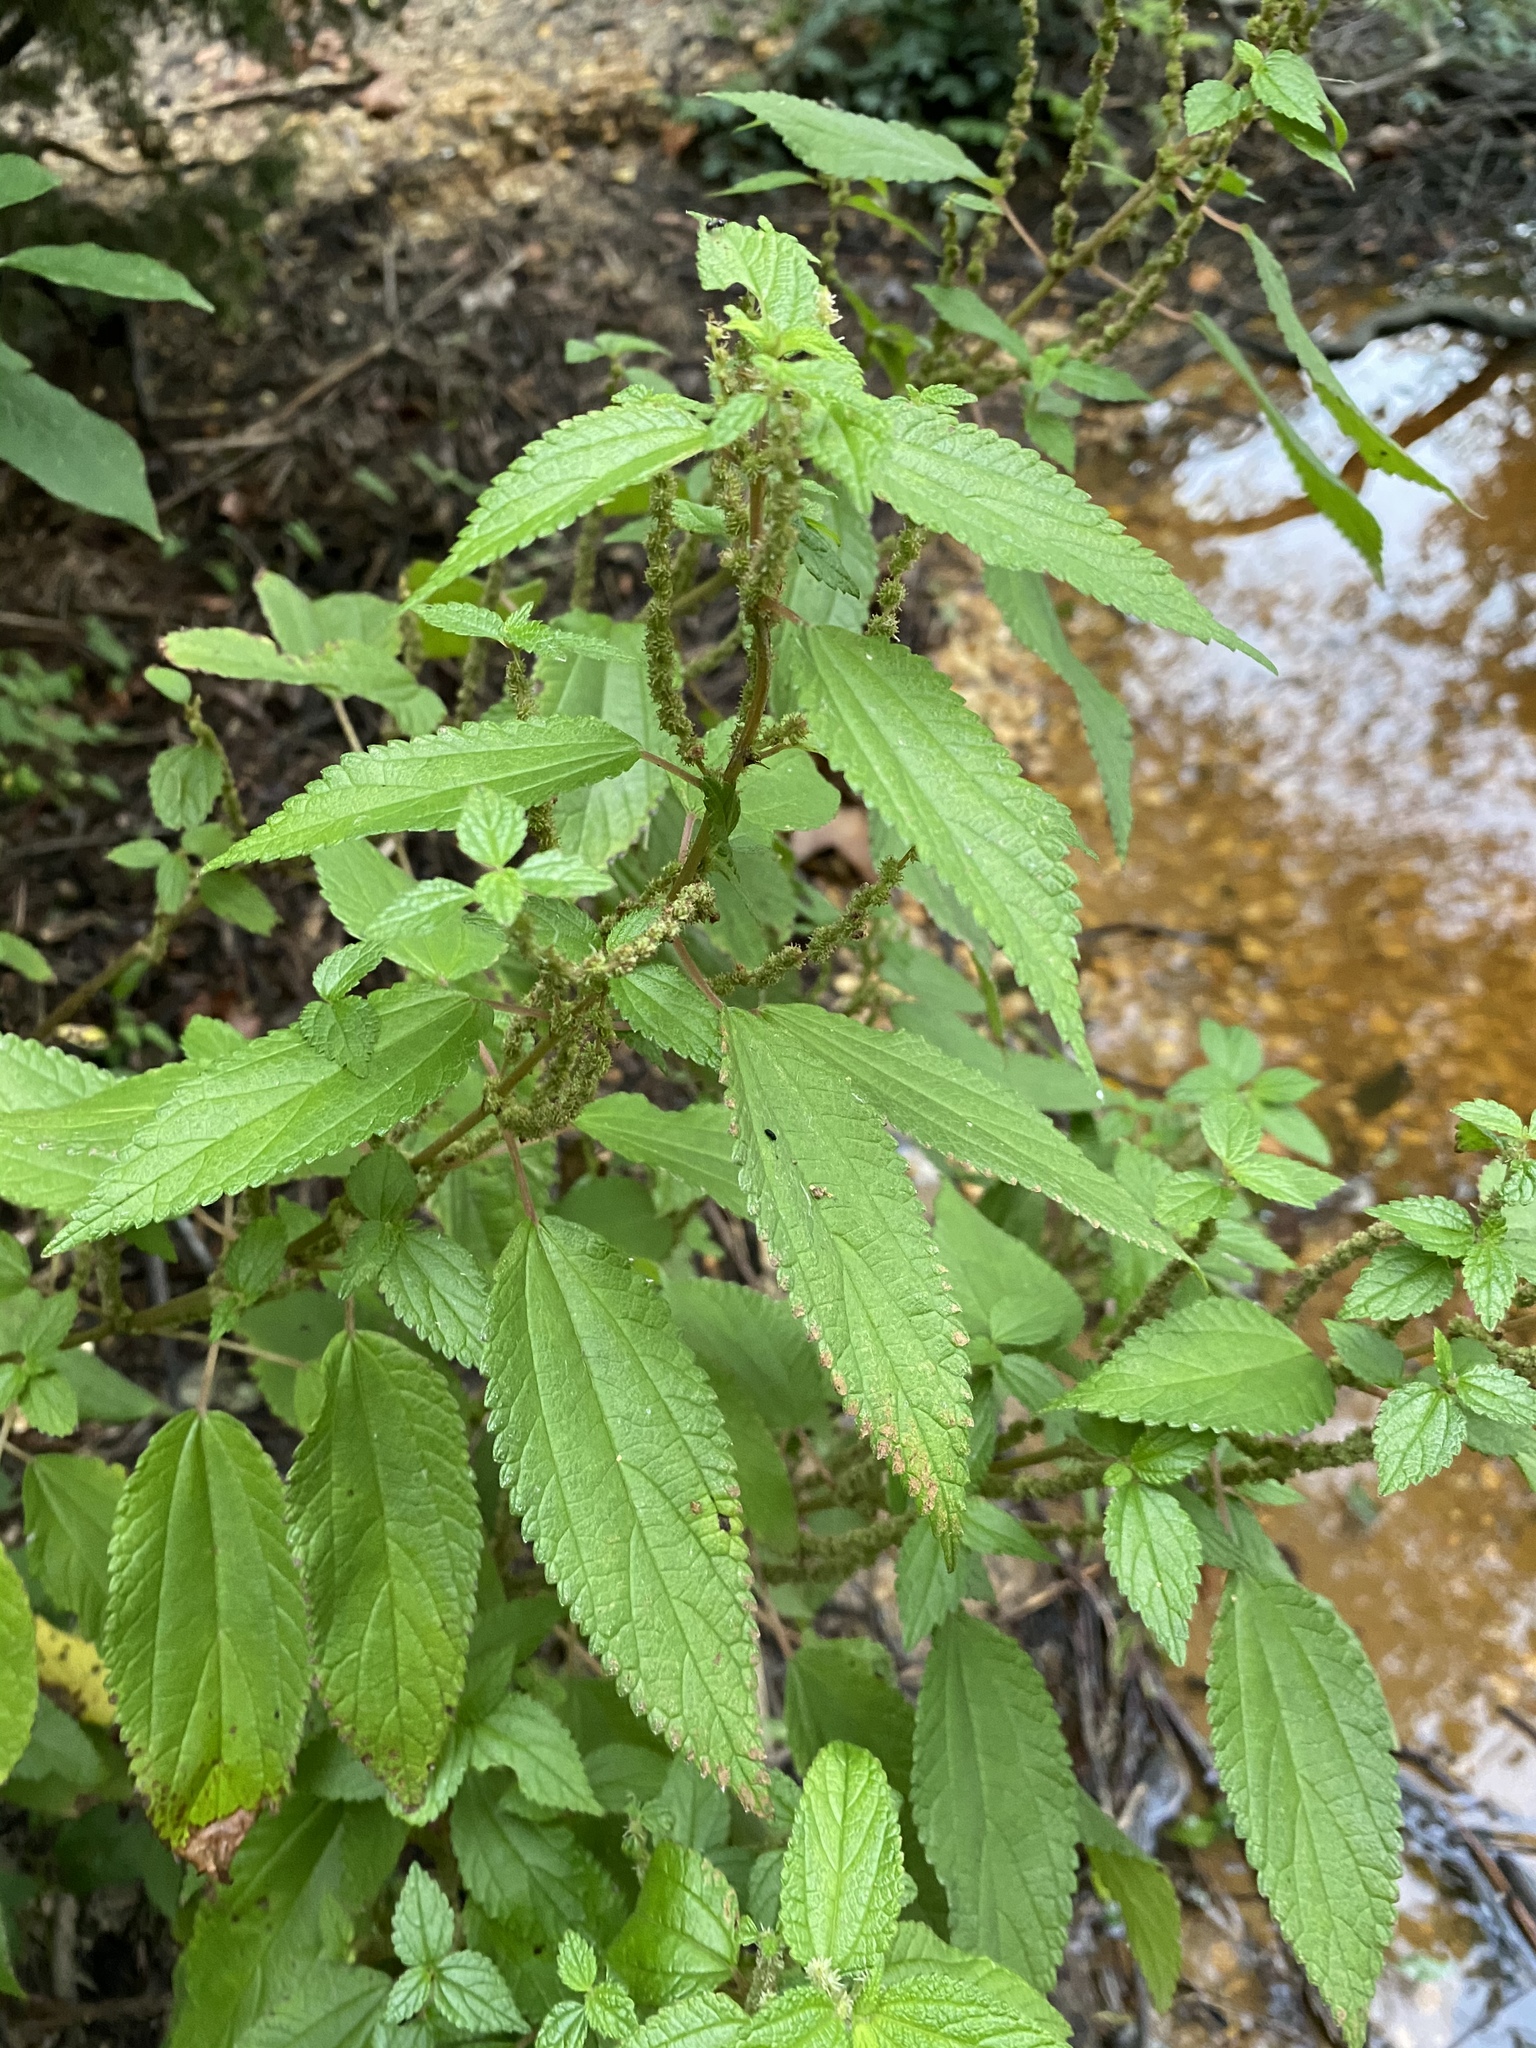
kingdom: Plantae
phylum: Tracheophyta
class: Magnoliopsida
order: Rosales
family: Urticaceae
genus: Boehmeria
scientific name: Boehmeria cylindrica
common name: Bog-hemp
